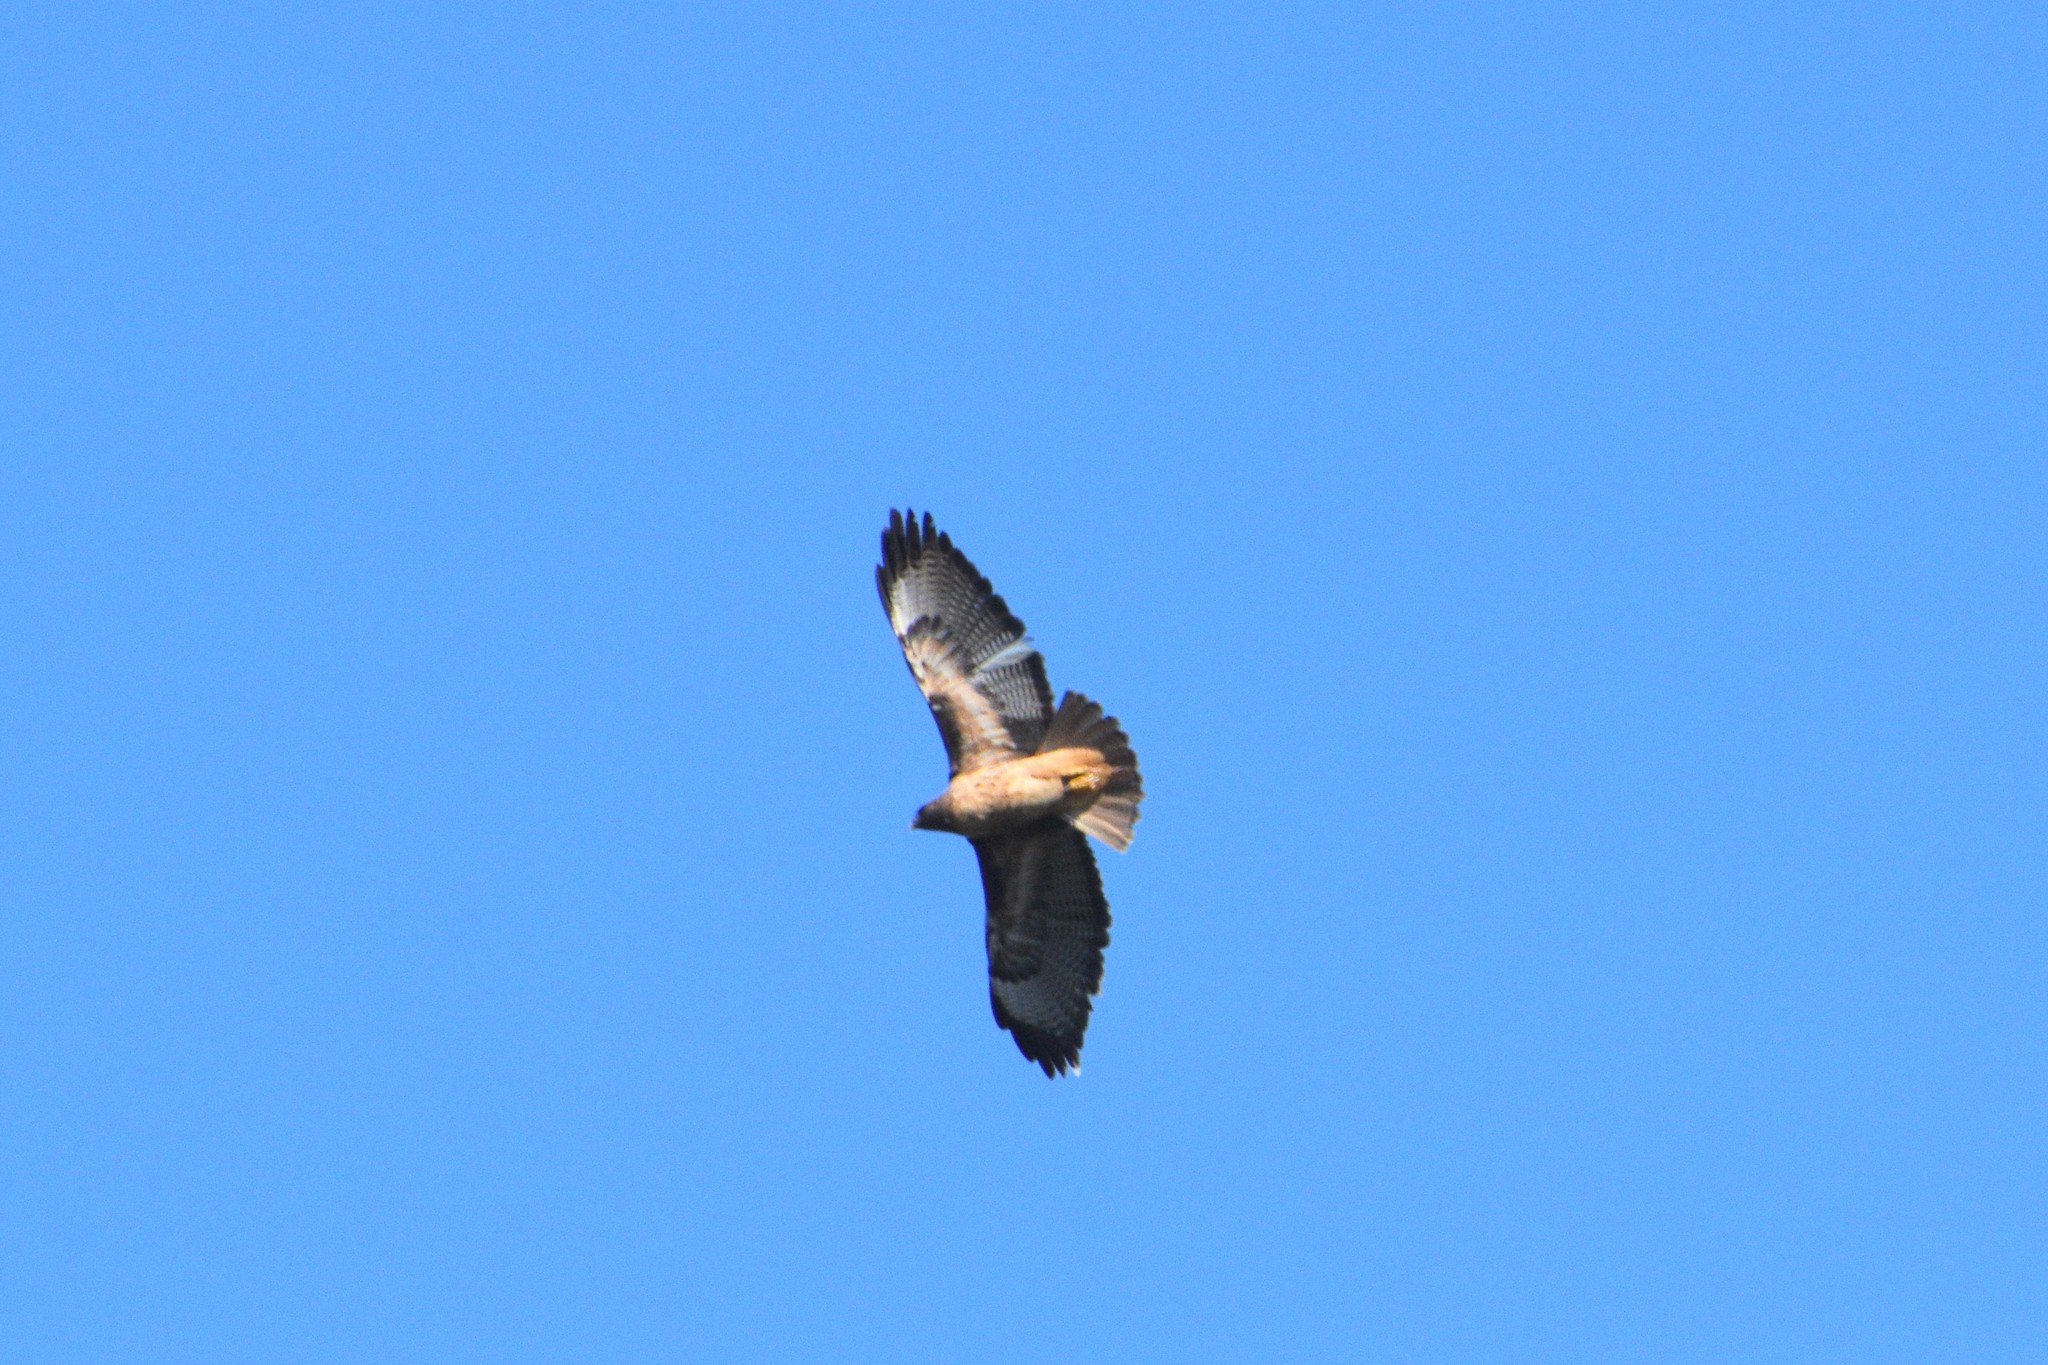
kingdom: Animalia
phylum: Chordata
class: Aves
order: Accipitriformes
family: Accipitridae
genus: Buteo
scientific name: Buteo jamaicensis
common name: Red-tailed hawk
